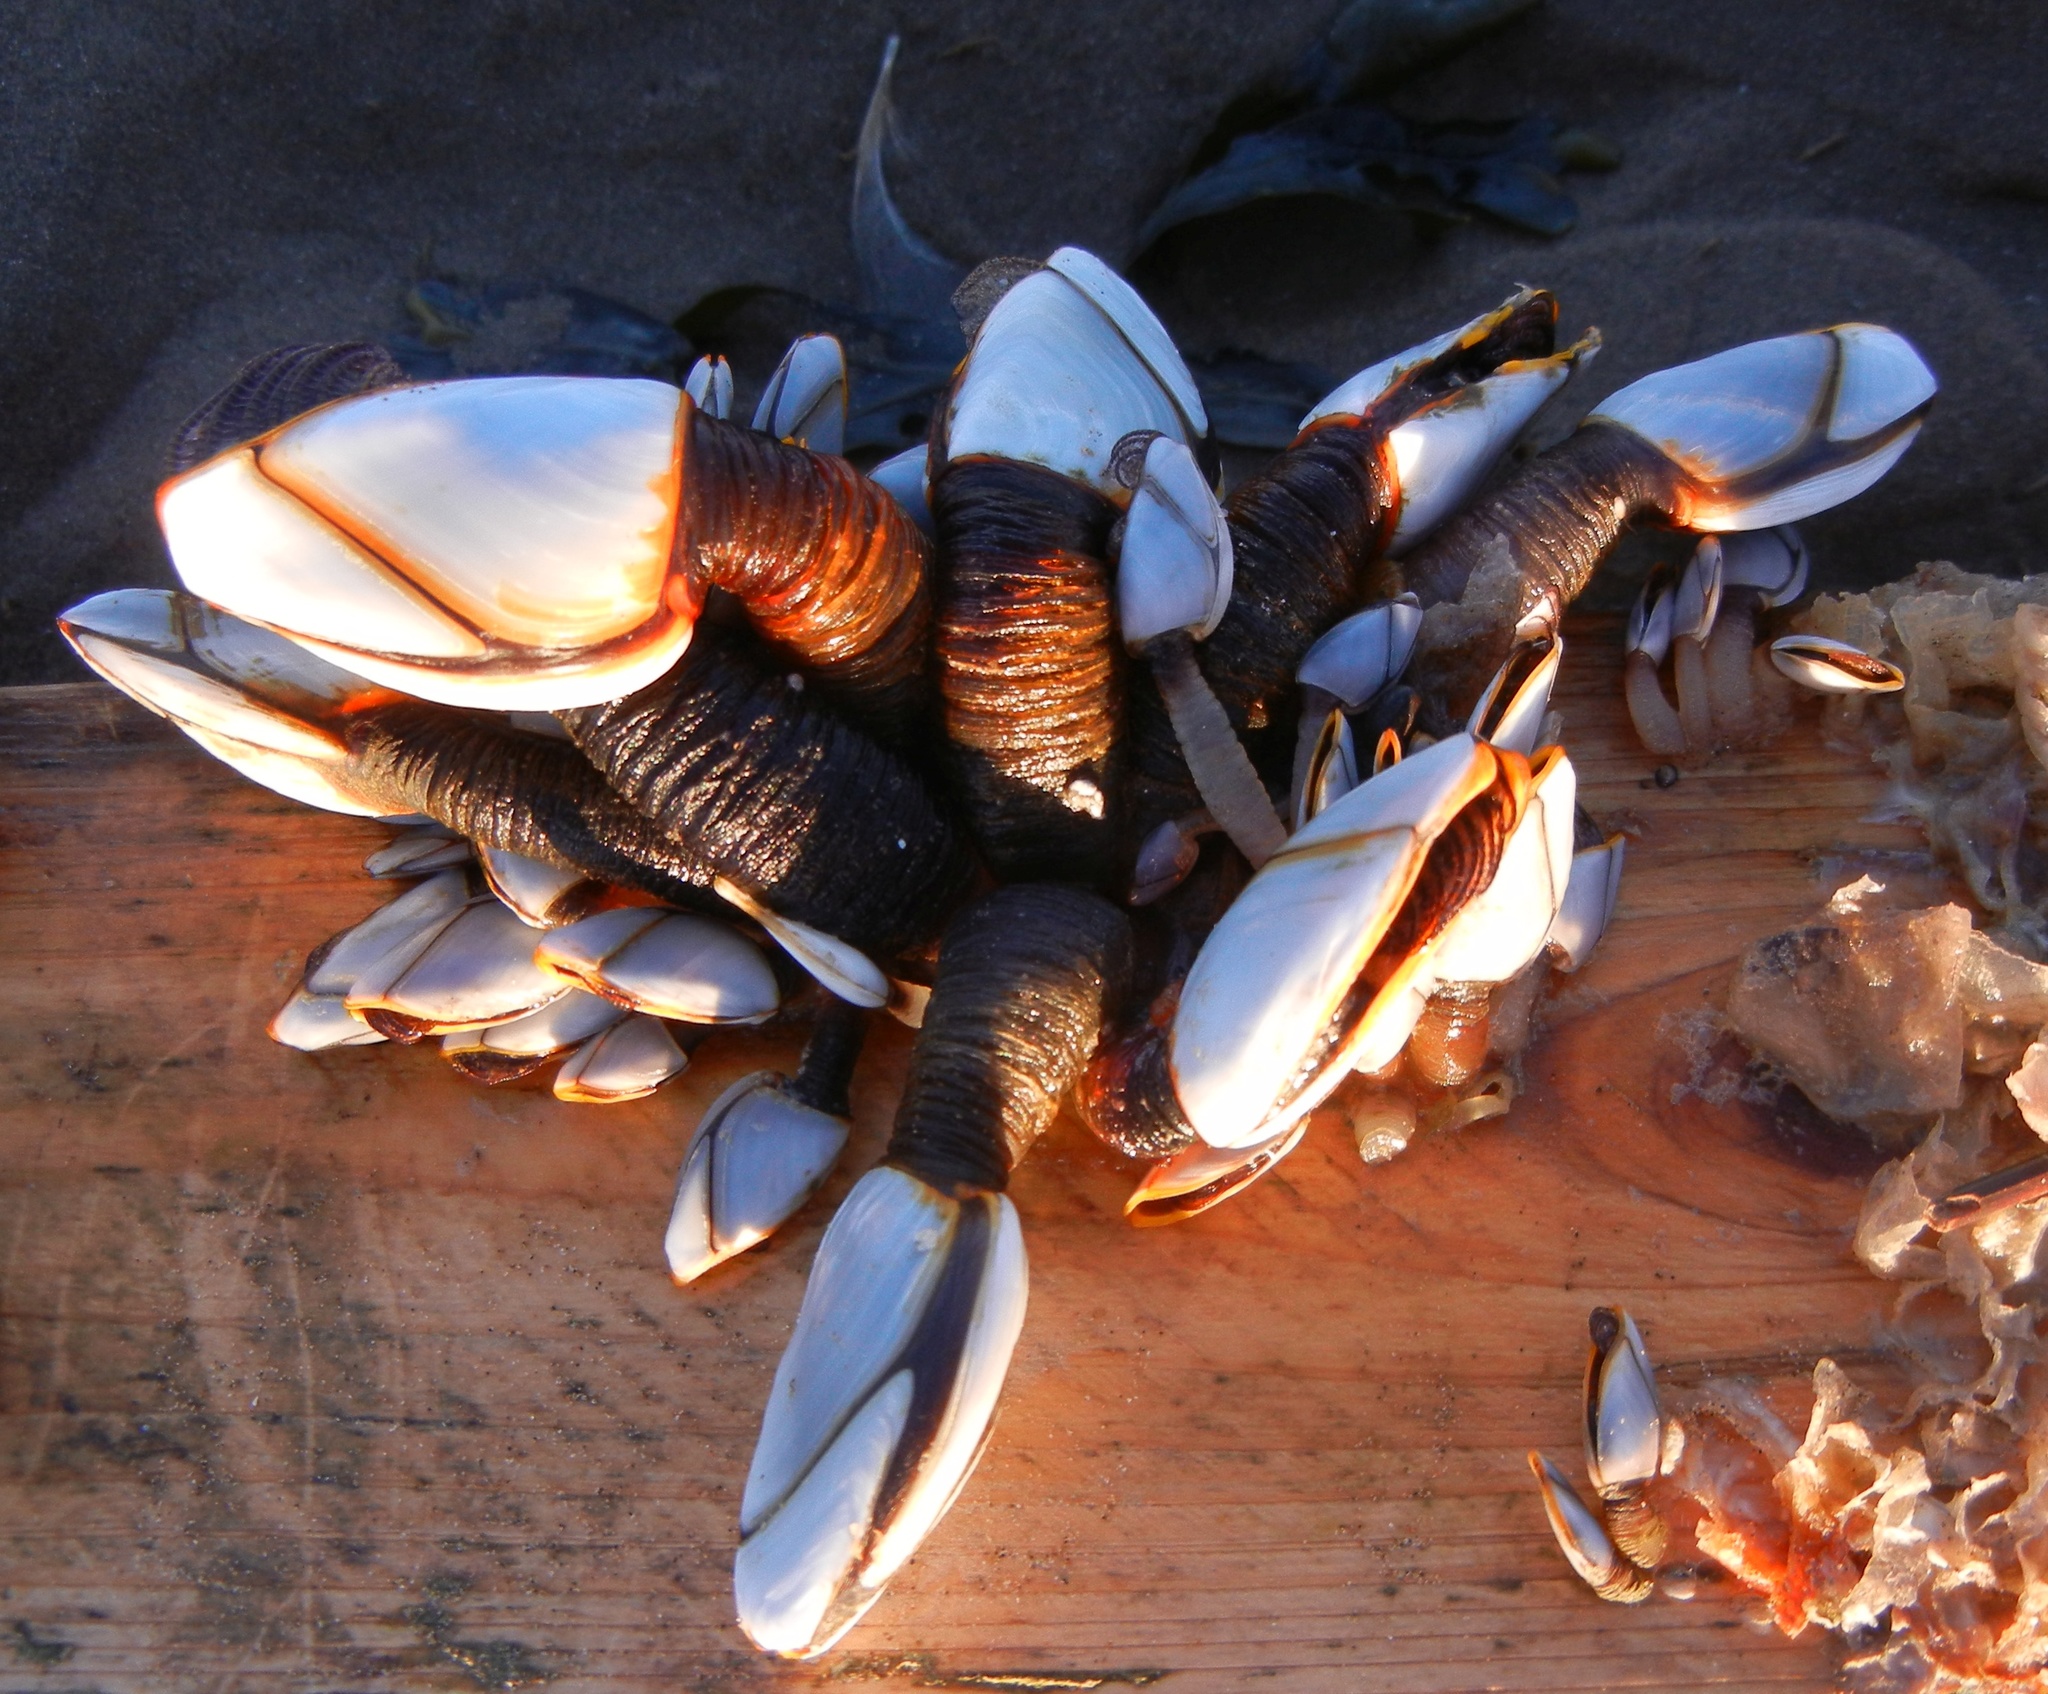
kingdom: Animalia
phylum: Arthropoda
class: Maxillopoda
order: Pedunculata
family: Lepadidae
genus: Lepas
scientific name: Lepas hillii
